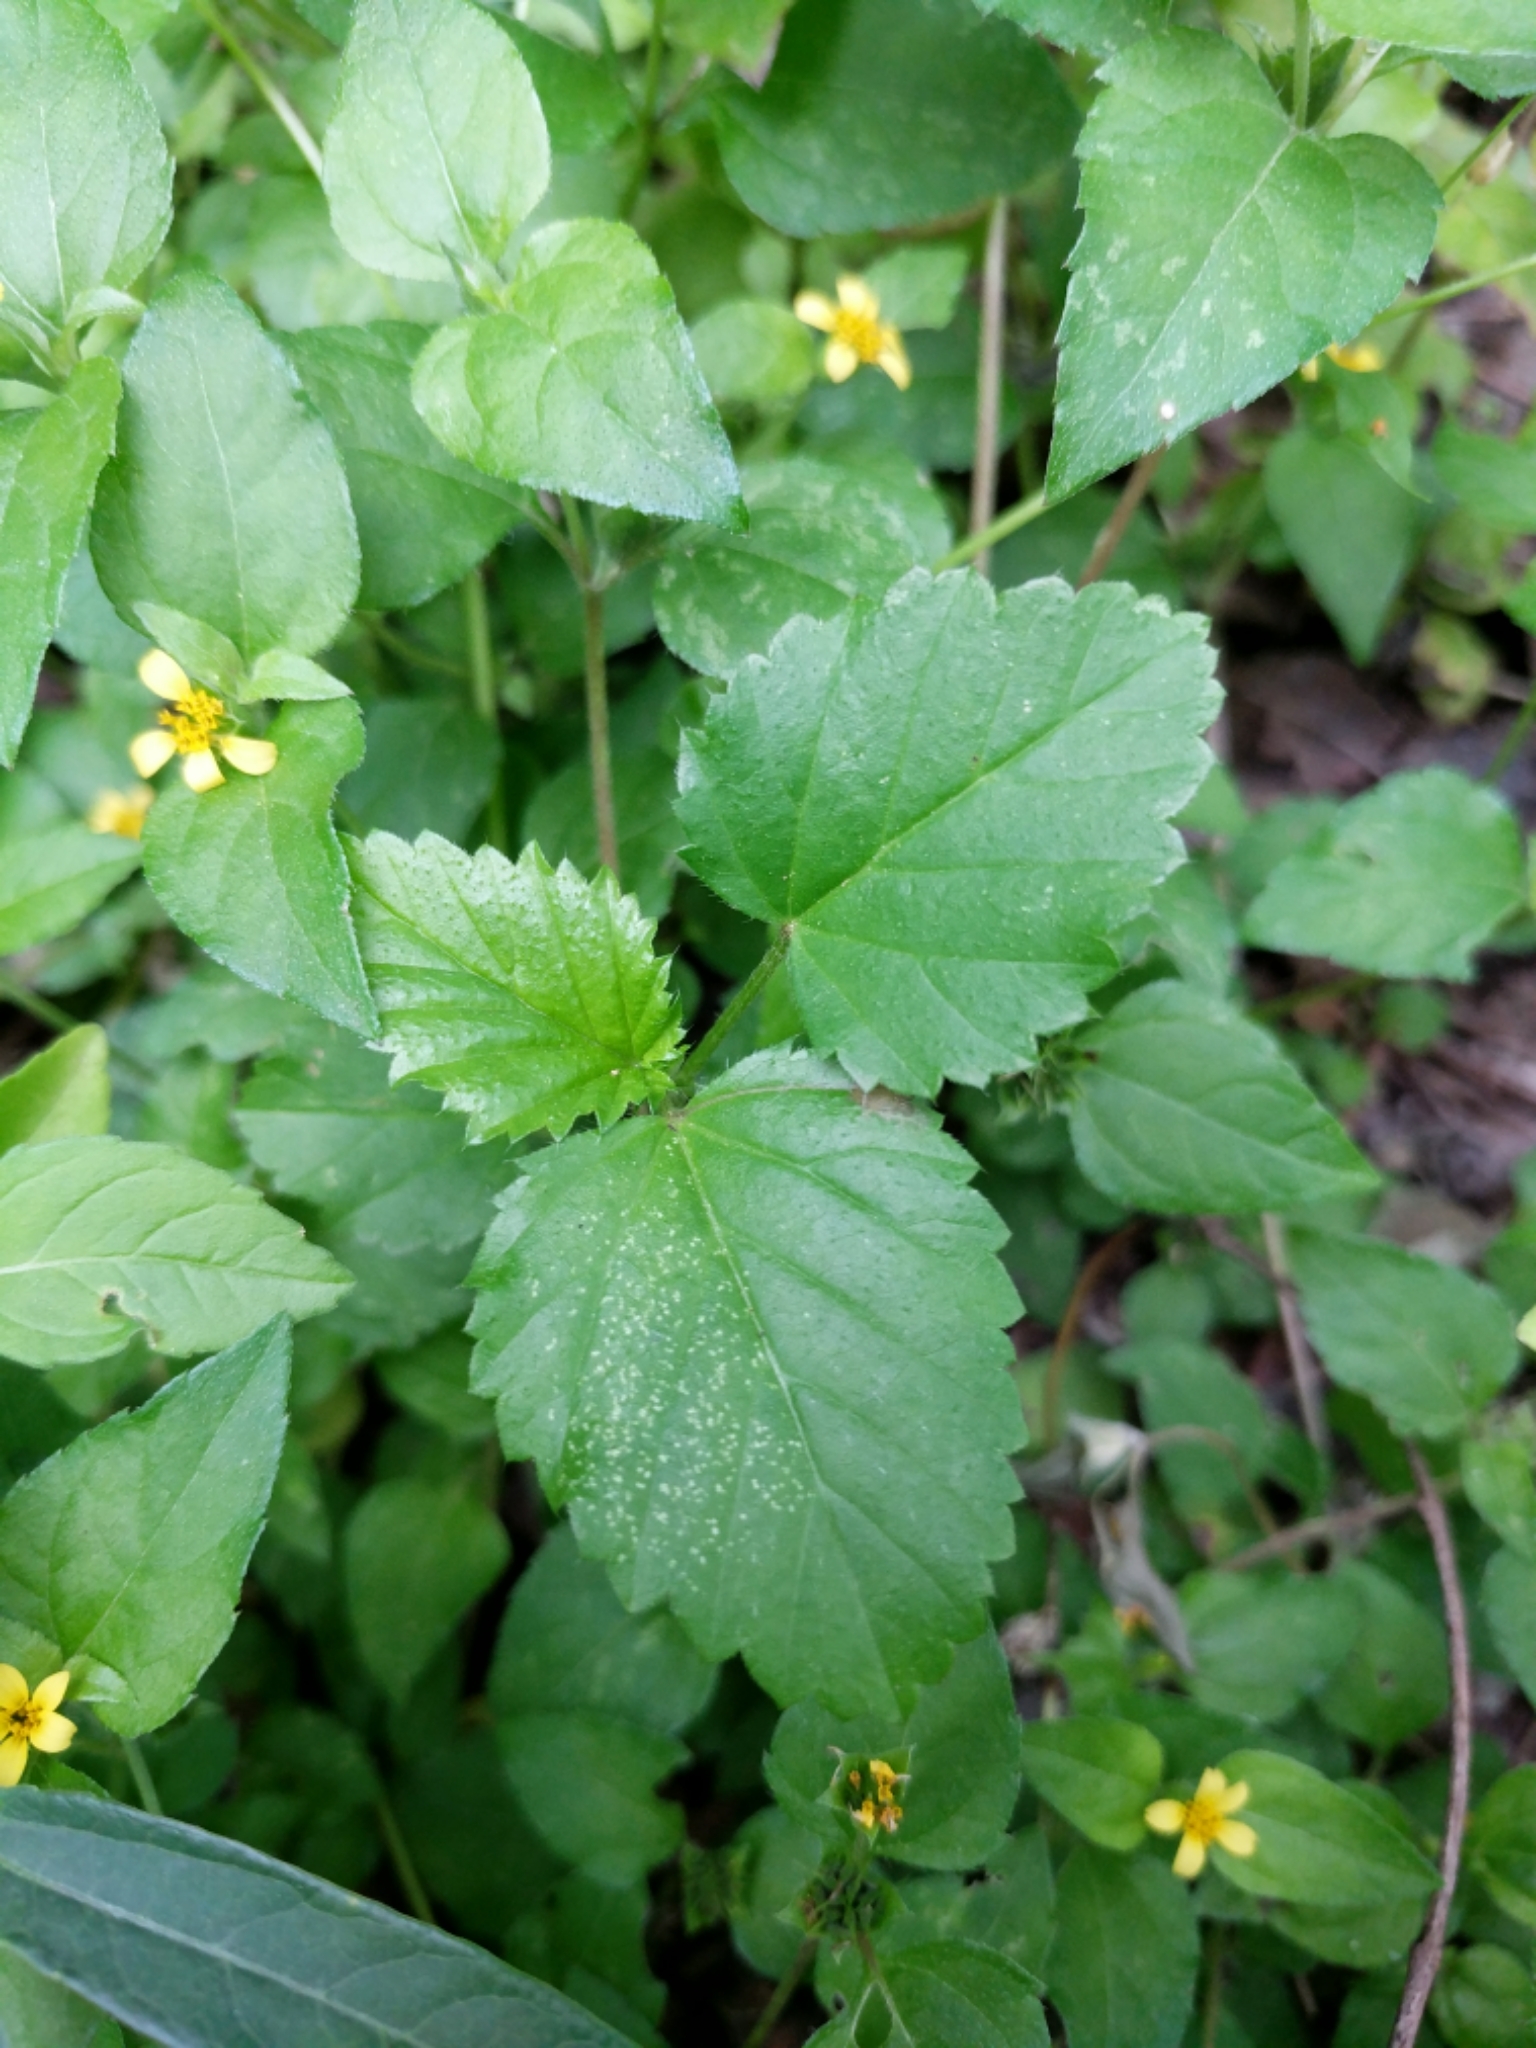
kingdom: Plantae
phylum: Tracheophyta
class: Magnoliopsida
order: Malvales
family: Malvaceae
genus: Malvastrum
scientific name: Malvastrum coromandelianum
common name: Threelobe false mallow
